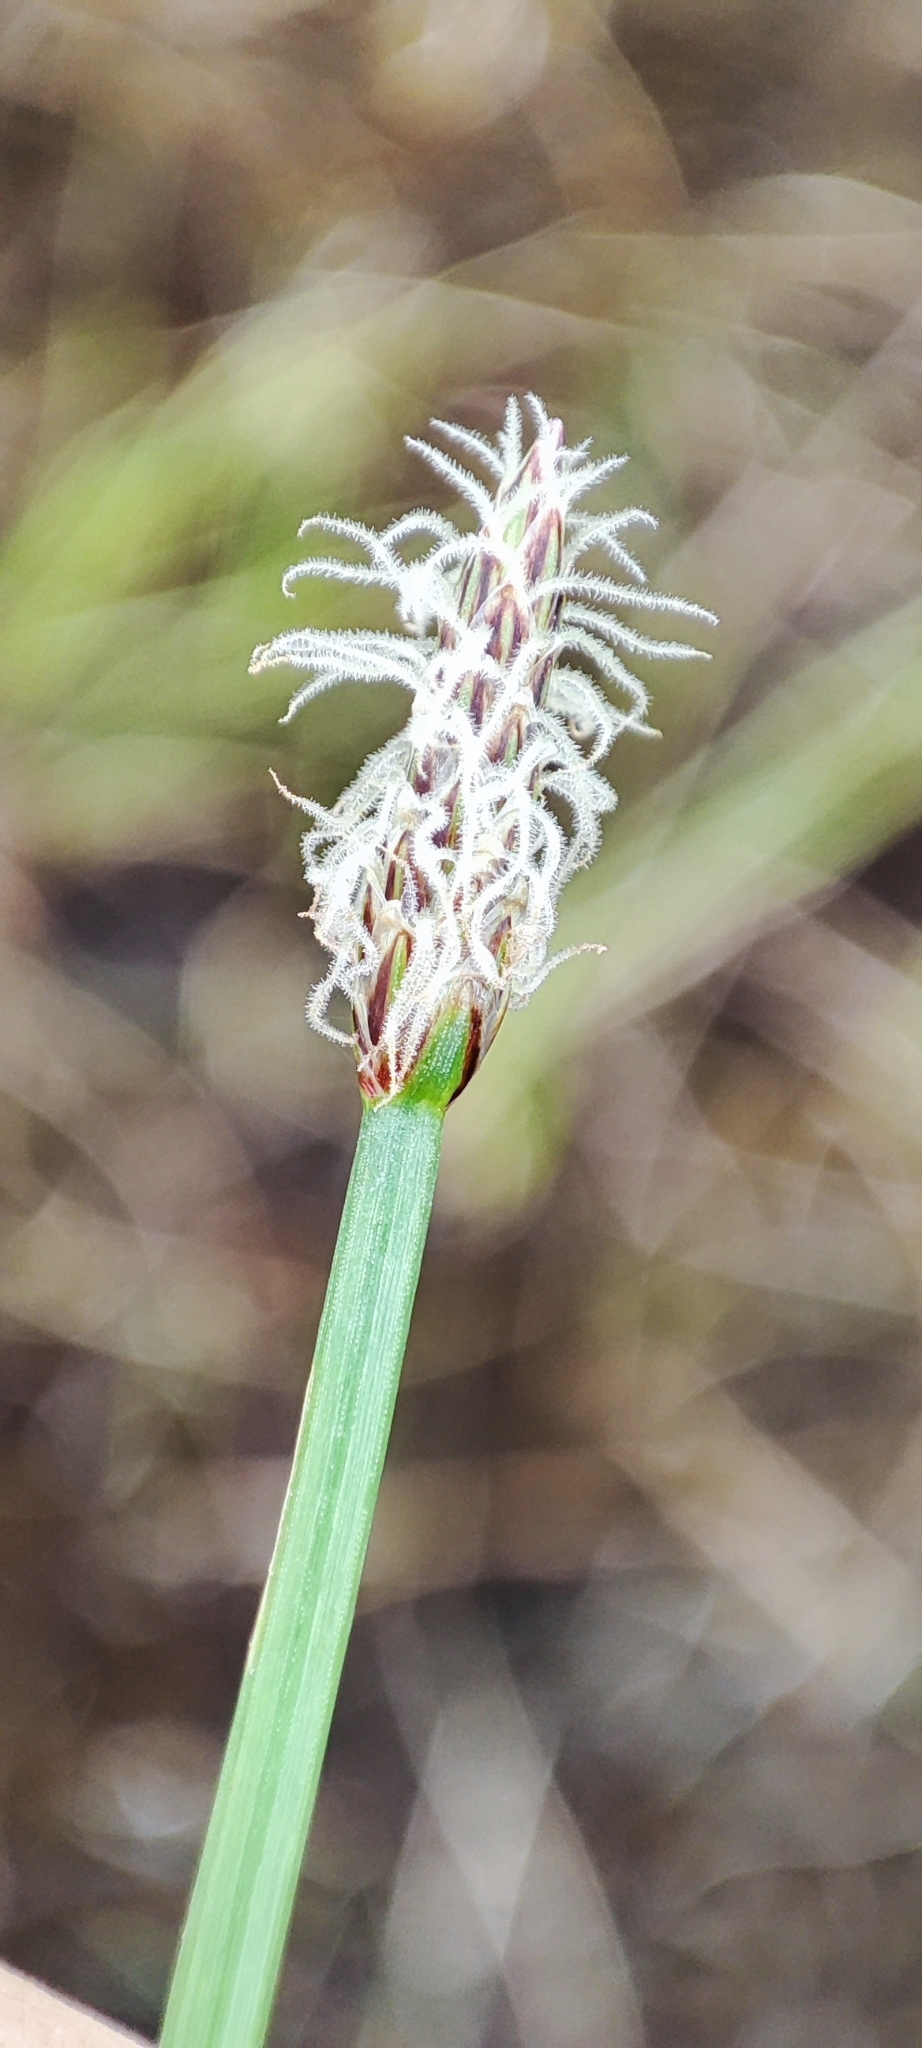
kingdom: Plantae
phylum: Tracheophyta
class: Liliopsida
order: Poales
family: Cyperaceae
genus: Eleocharis
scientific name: Eleocharis palustris
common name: Common spike-rush
